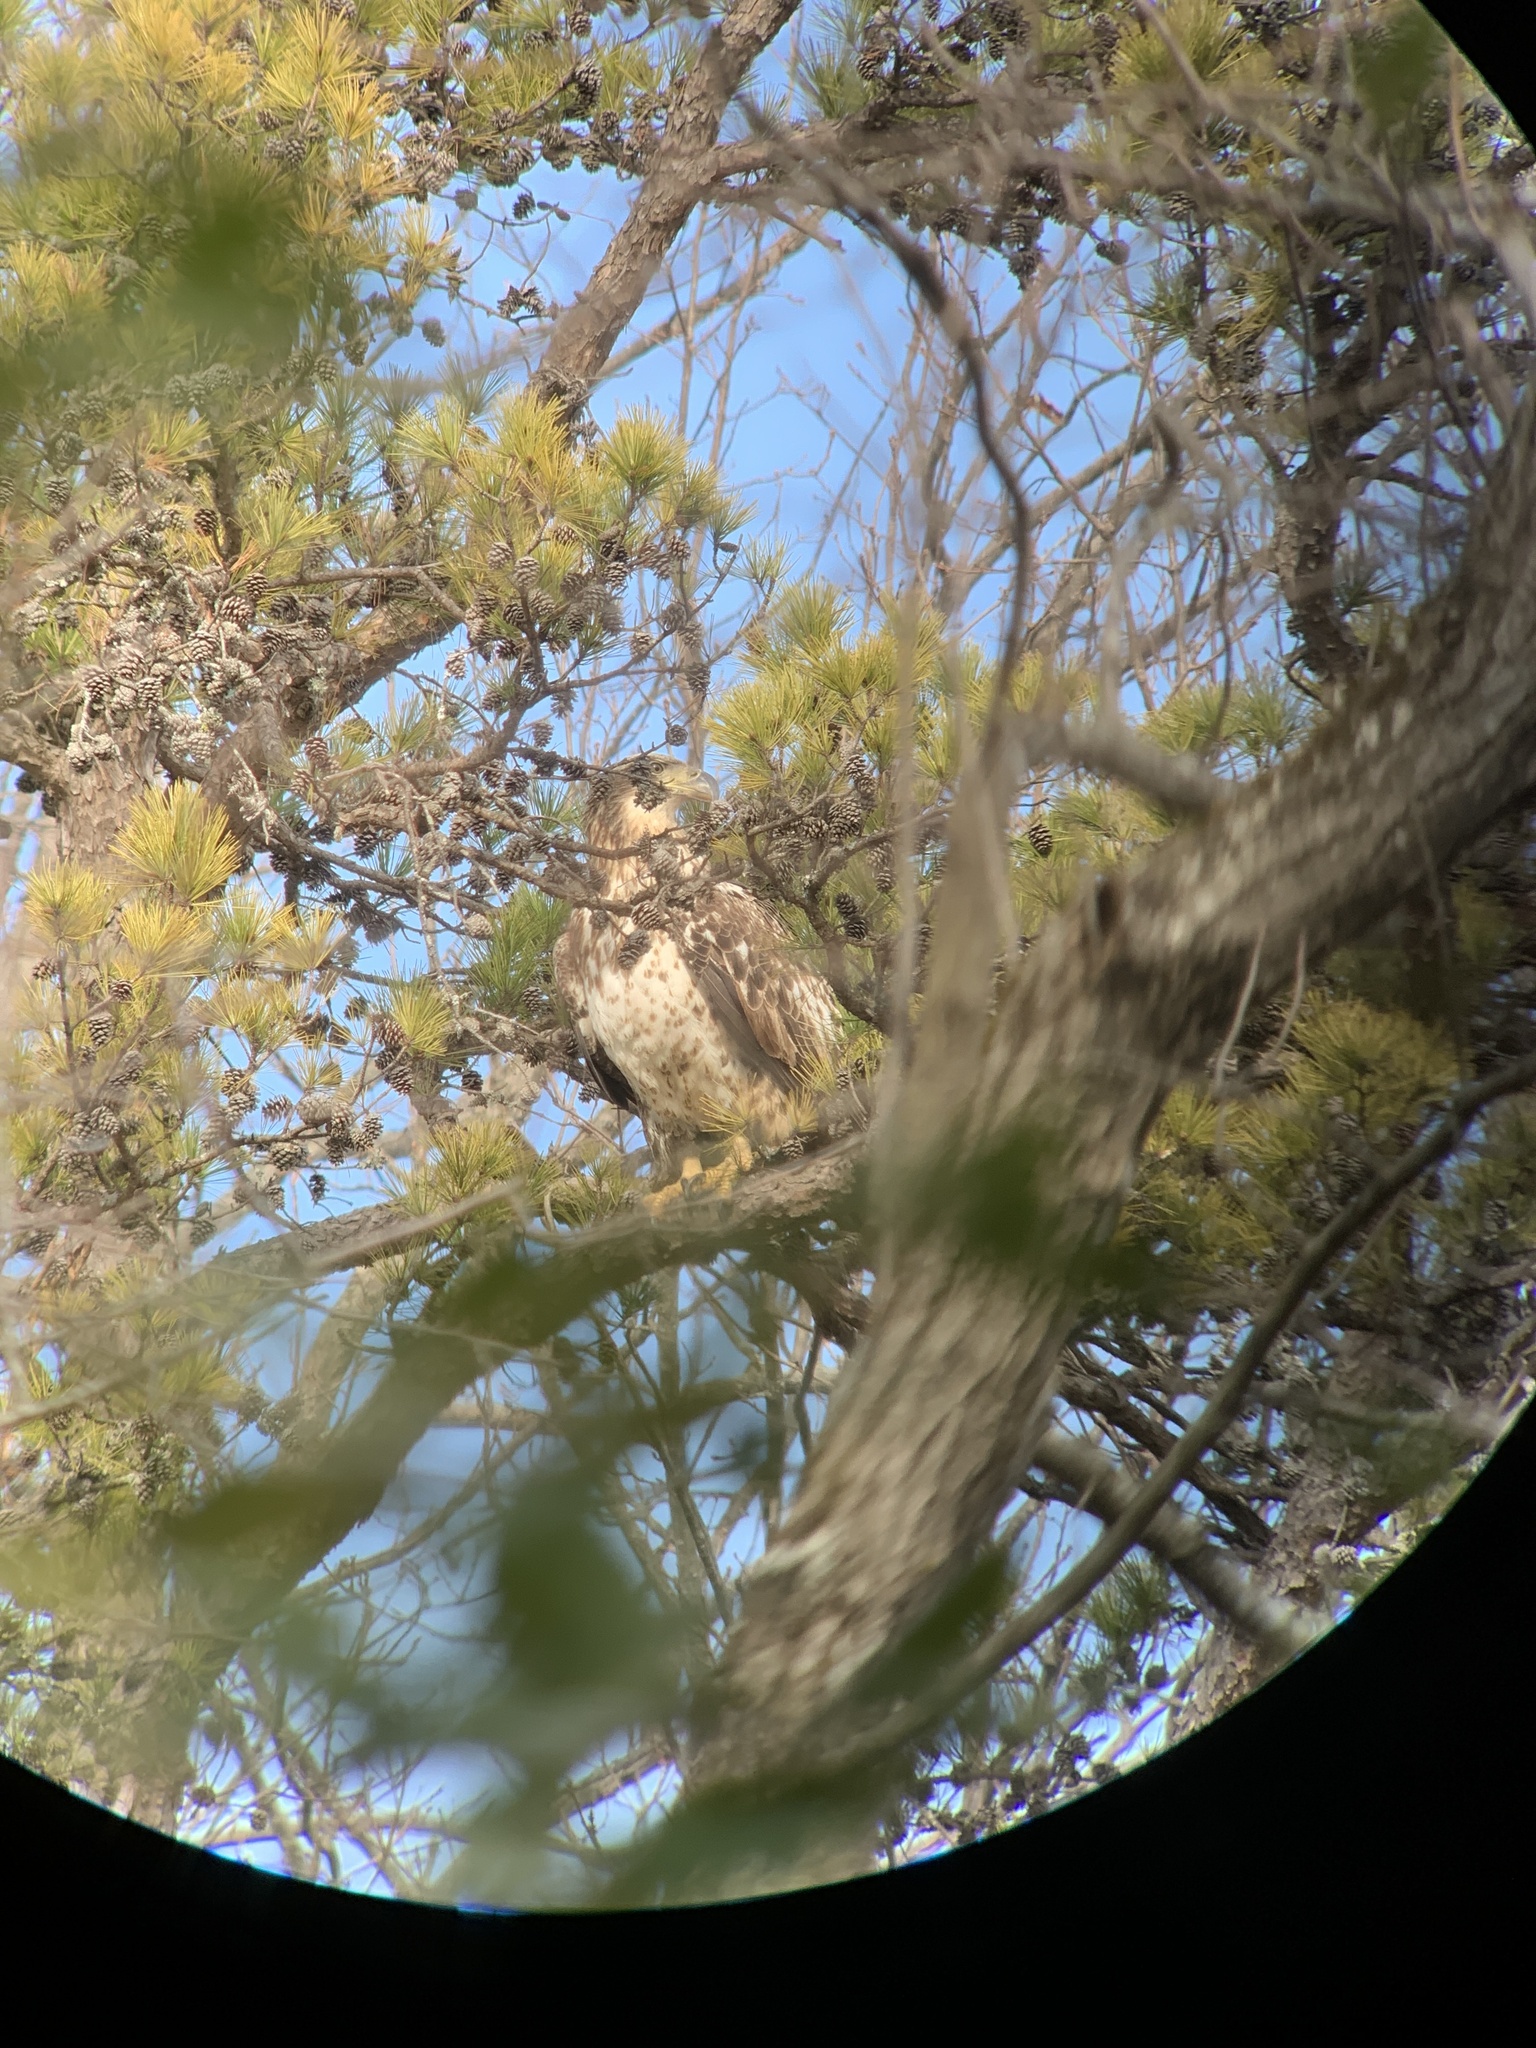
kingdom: Animalia
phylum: Chordata
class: Aves
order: Accipitriformes
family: Accipitridae
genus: Haliaeetus
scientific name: Haliaeetus leucocephalus
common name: Bald eagle
